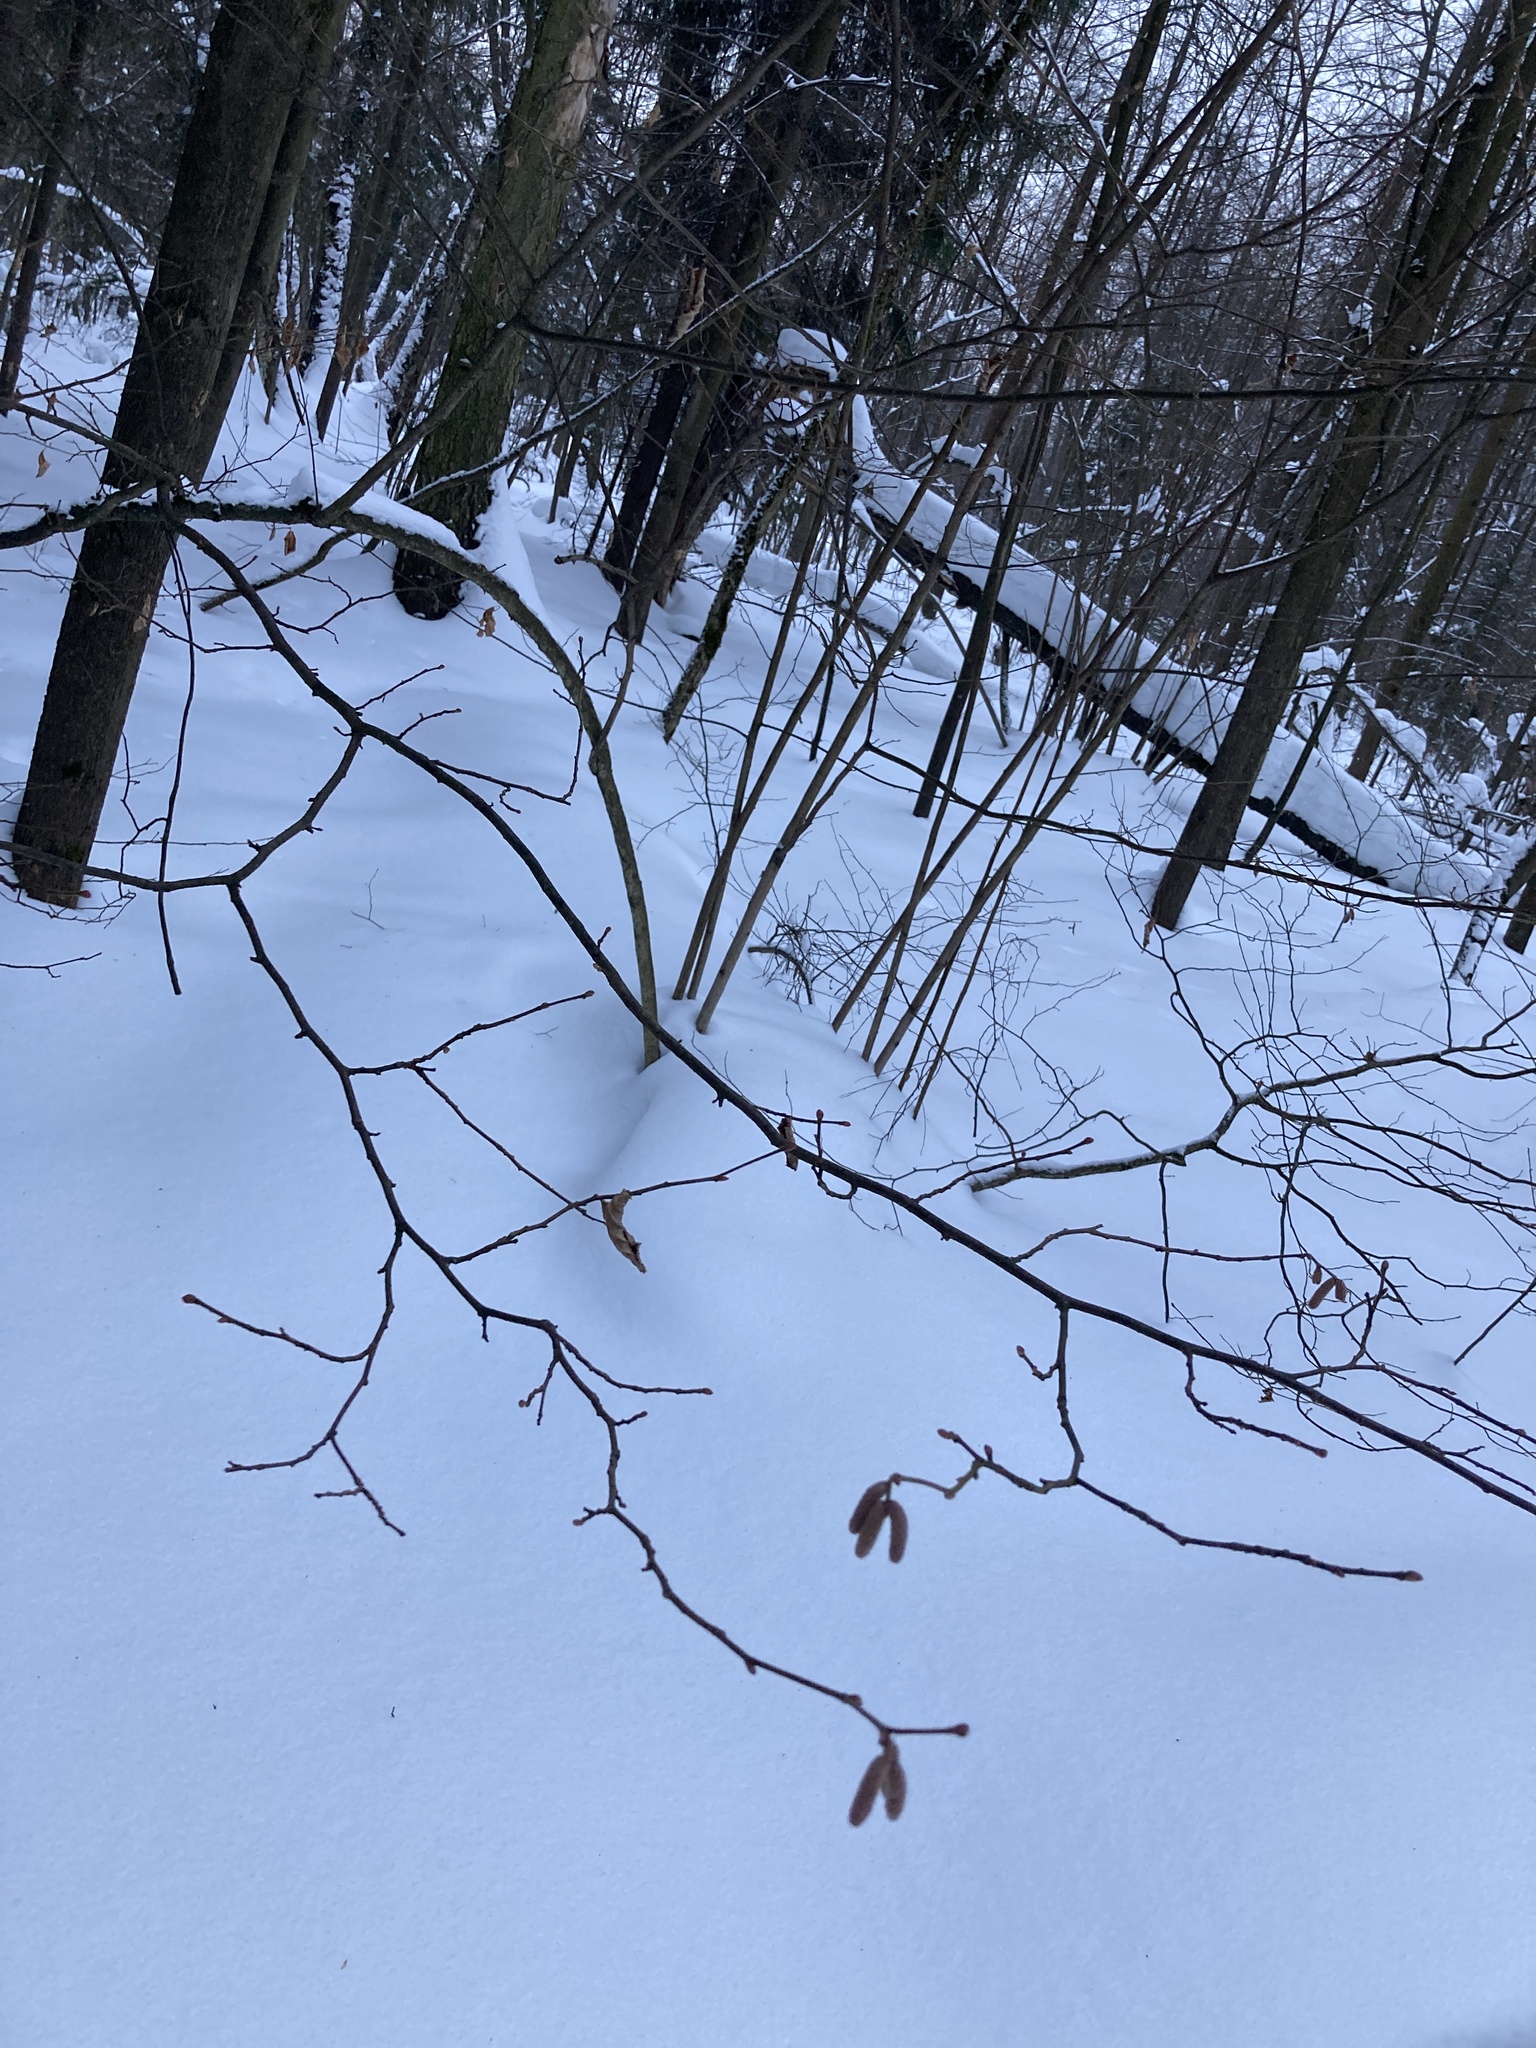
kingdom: Plantae
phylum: Tracheophyta
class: Magnoliopsida
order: Fagales
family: Betulaceae
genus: Corylus
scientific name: Corylus avellana
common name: European hazel
